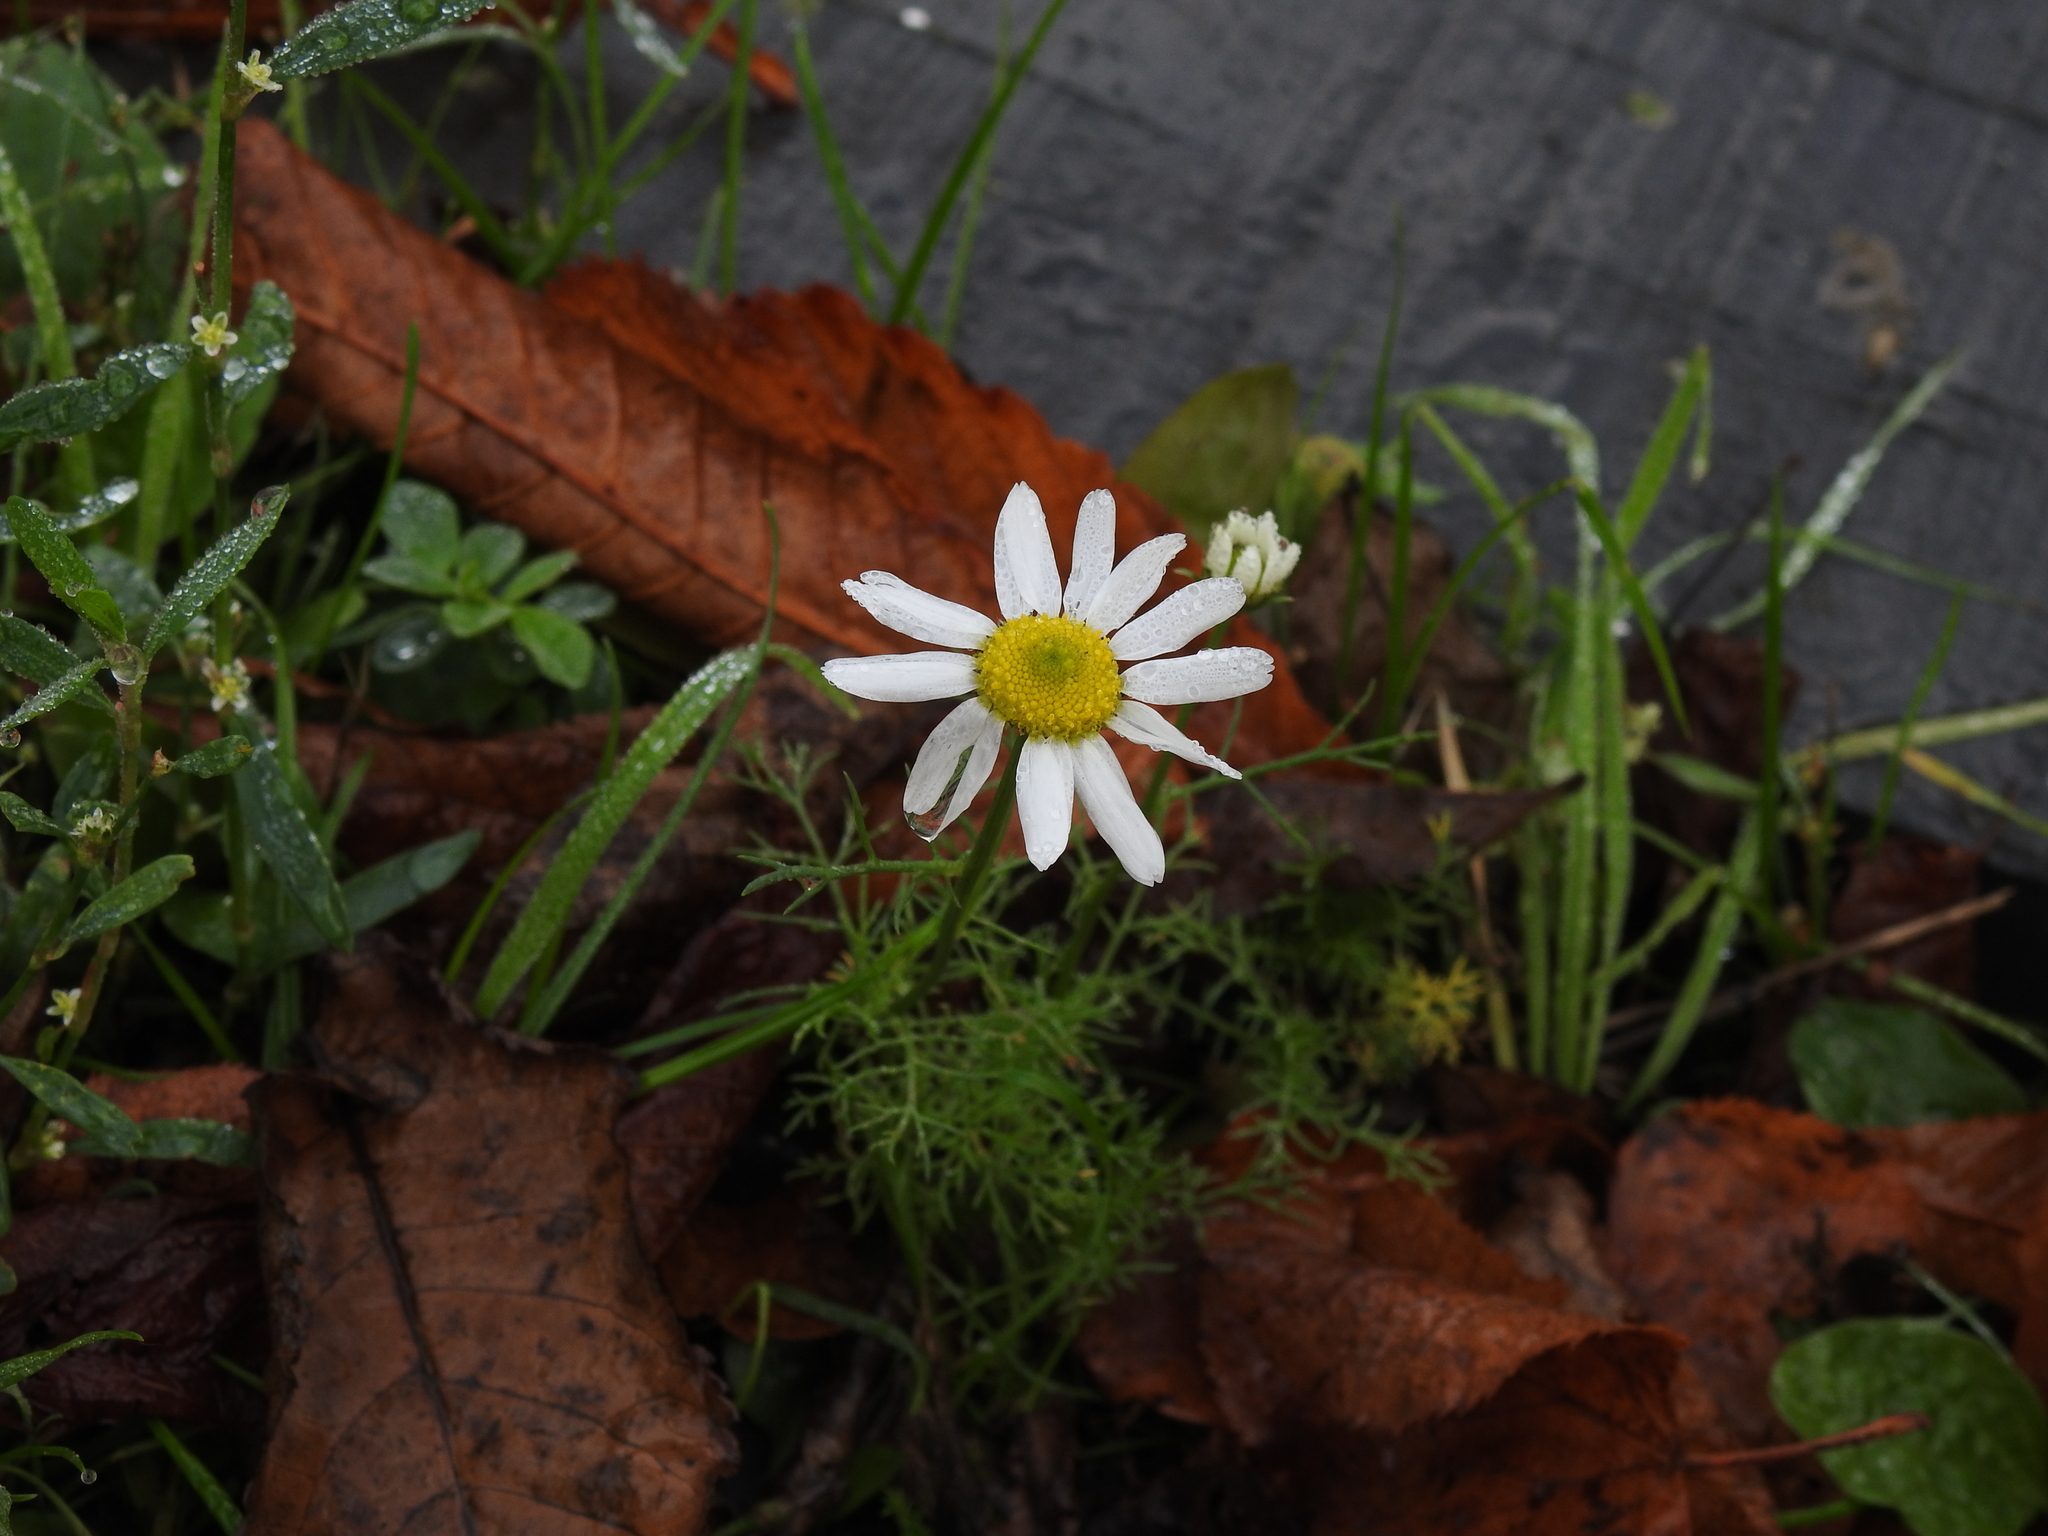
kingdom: Plantae
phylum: Tracheophyta
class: Magnoliopsida
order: Asterales
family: Asteraceae
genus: Tripleurospermum
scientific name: Tripleurospermum inodorum
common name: Scentless mayweed
